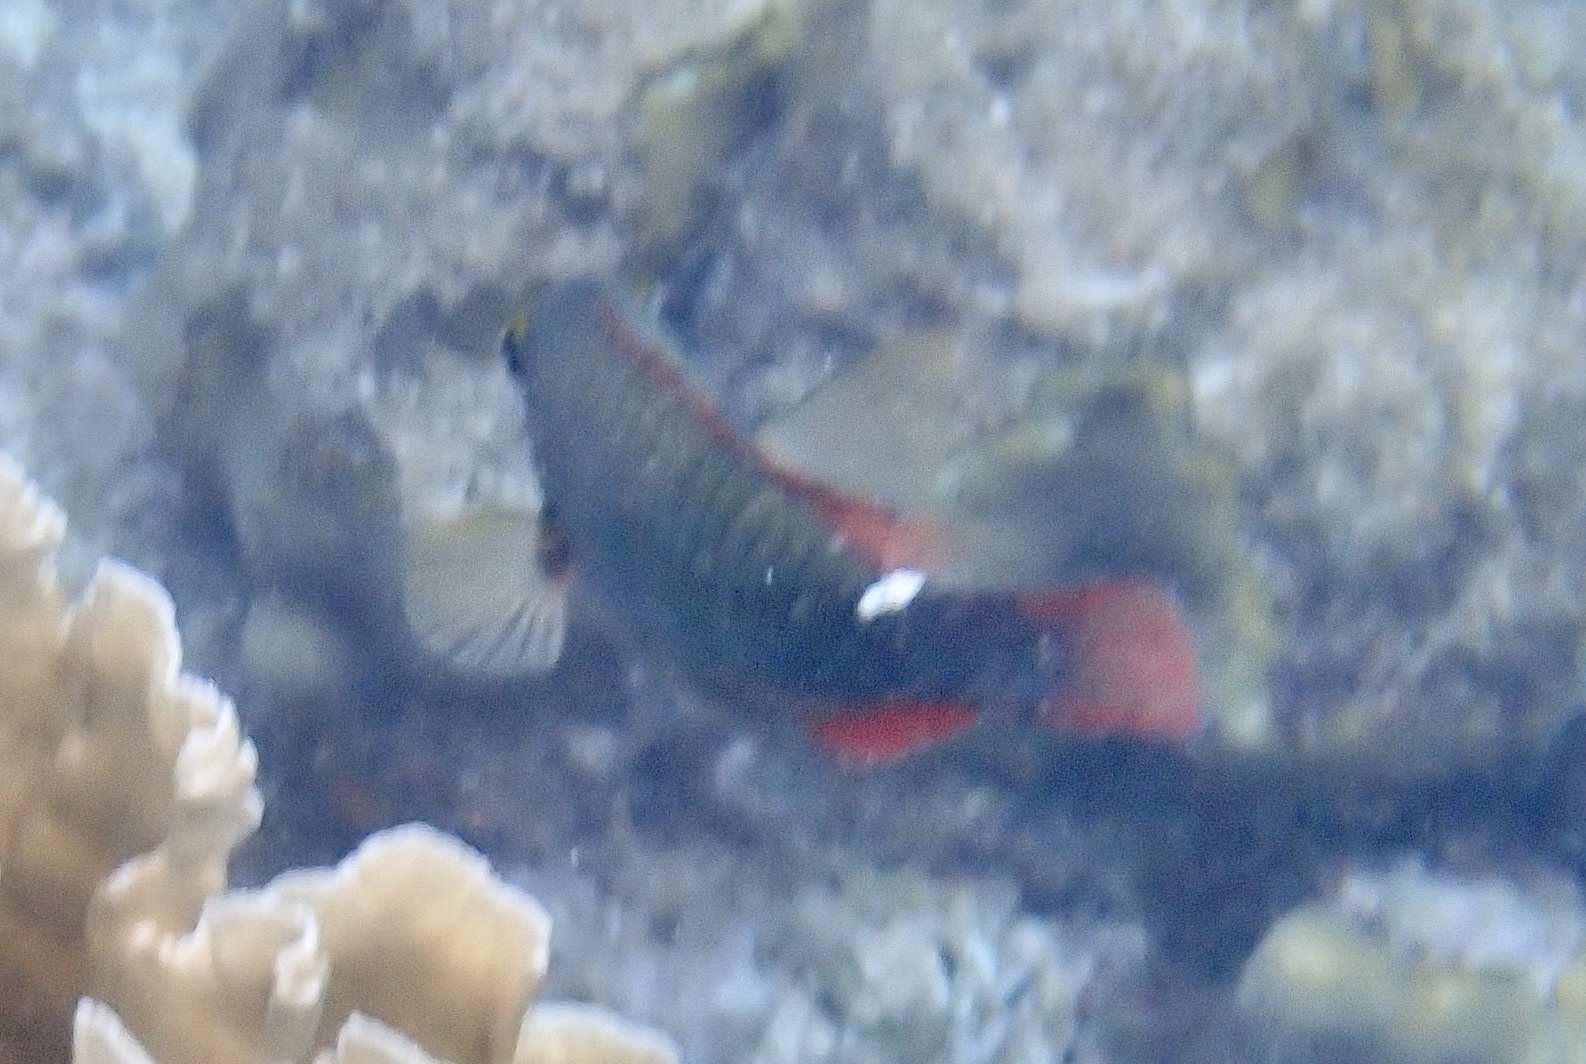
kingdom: Animalia
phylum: Chordata
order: Perciformes
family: Scaridae
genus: Sparisoma
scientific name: Sparisoma aurofrenatum
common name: Redband parrotfish
